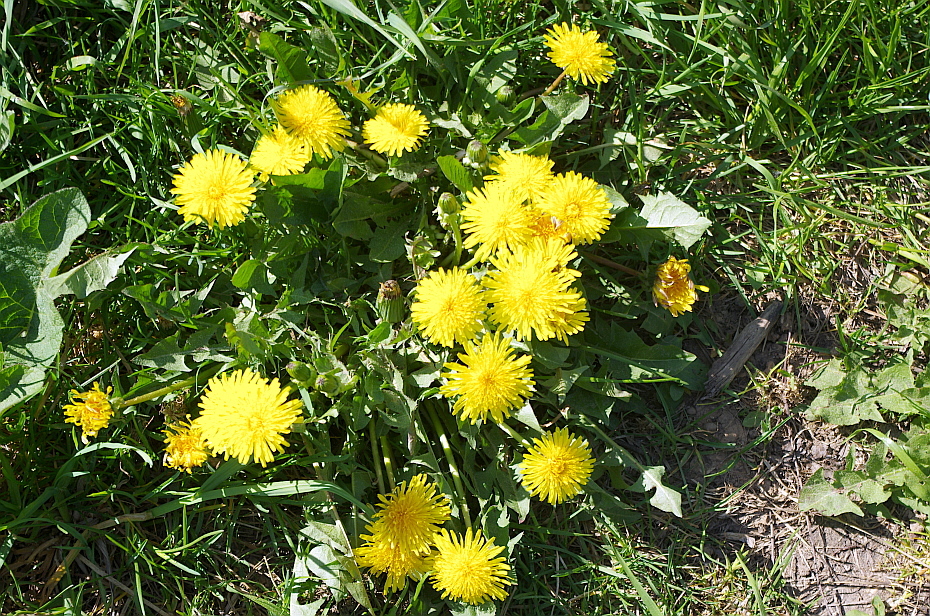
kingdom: Plantae
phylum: Tracheophyta
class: Magnoliopsida
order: Asterales
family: Asteraceae
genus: Taraxacum
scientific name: Taraxacum officinale
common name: Common dandelion
